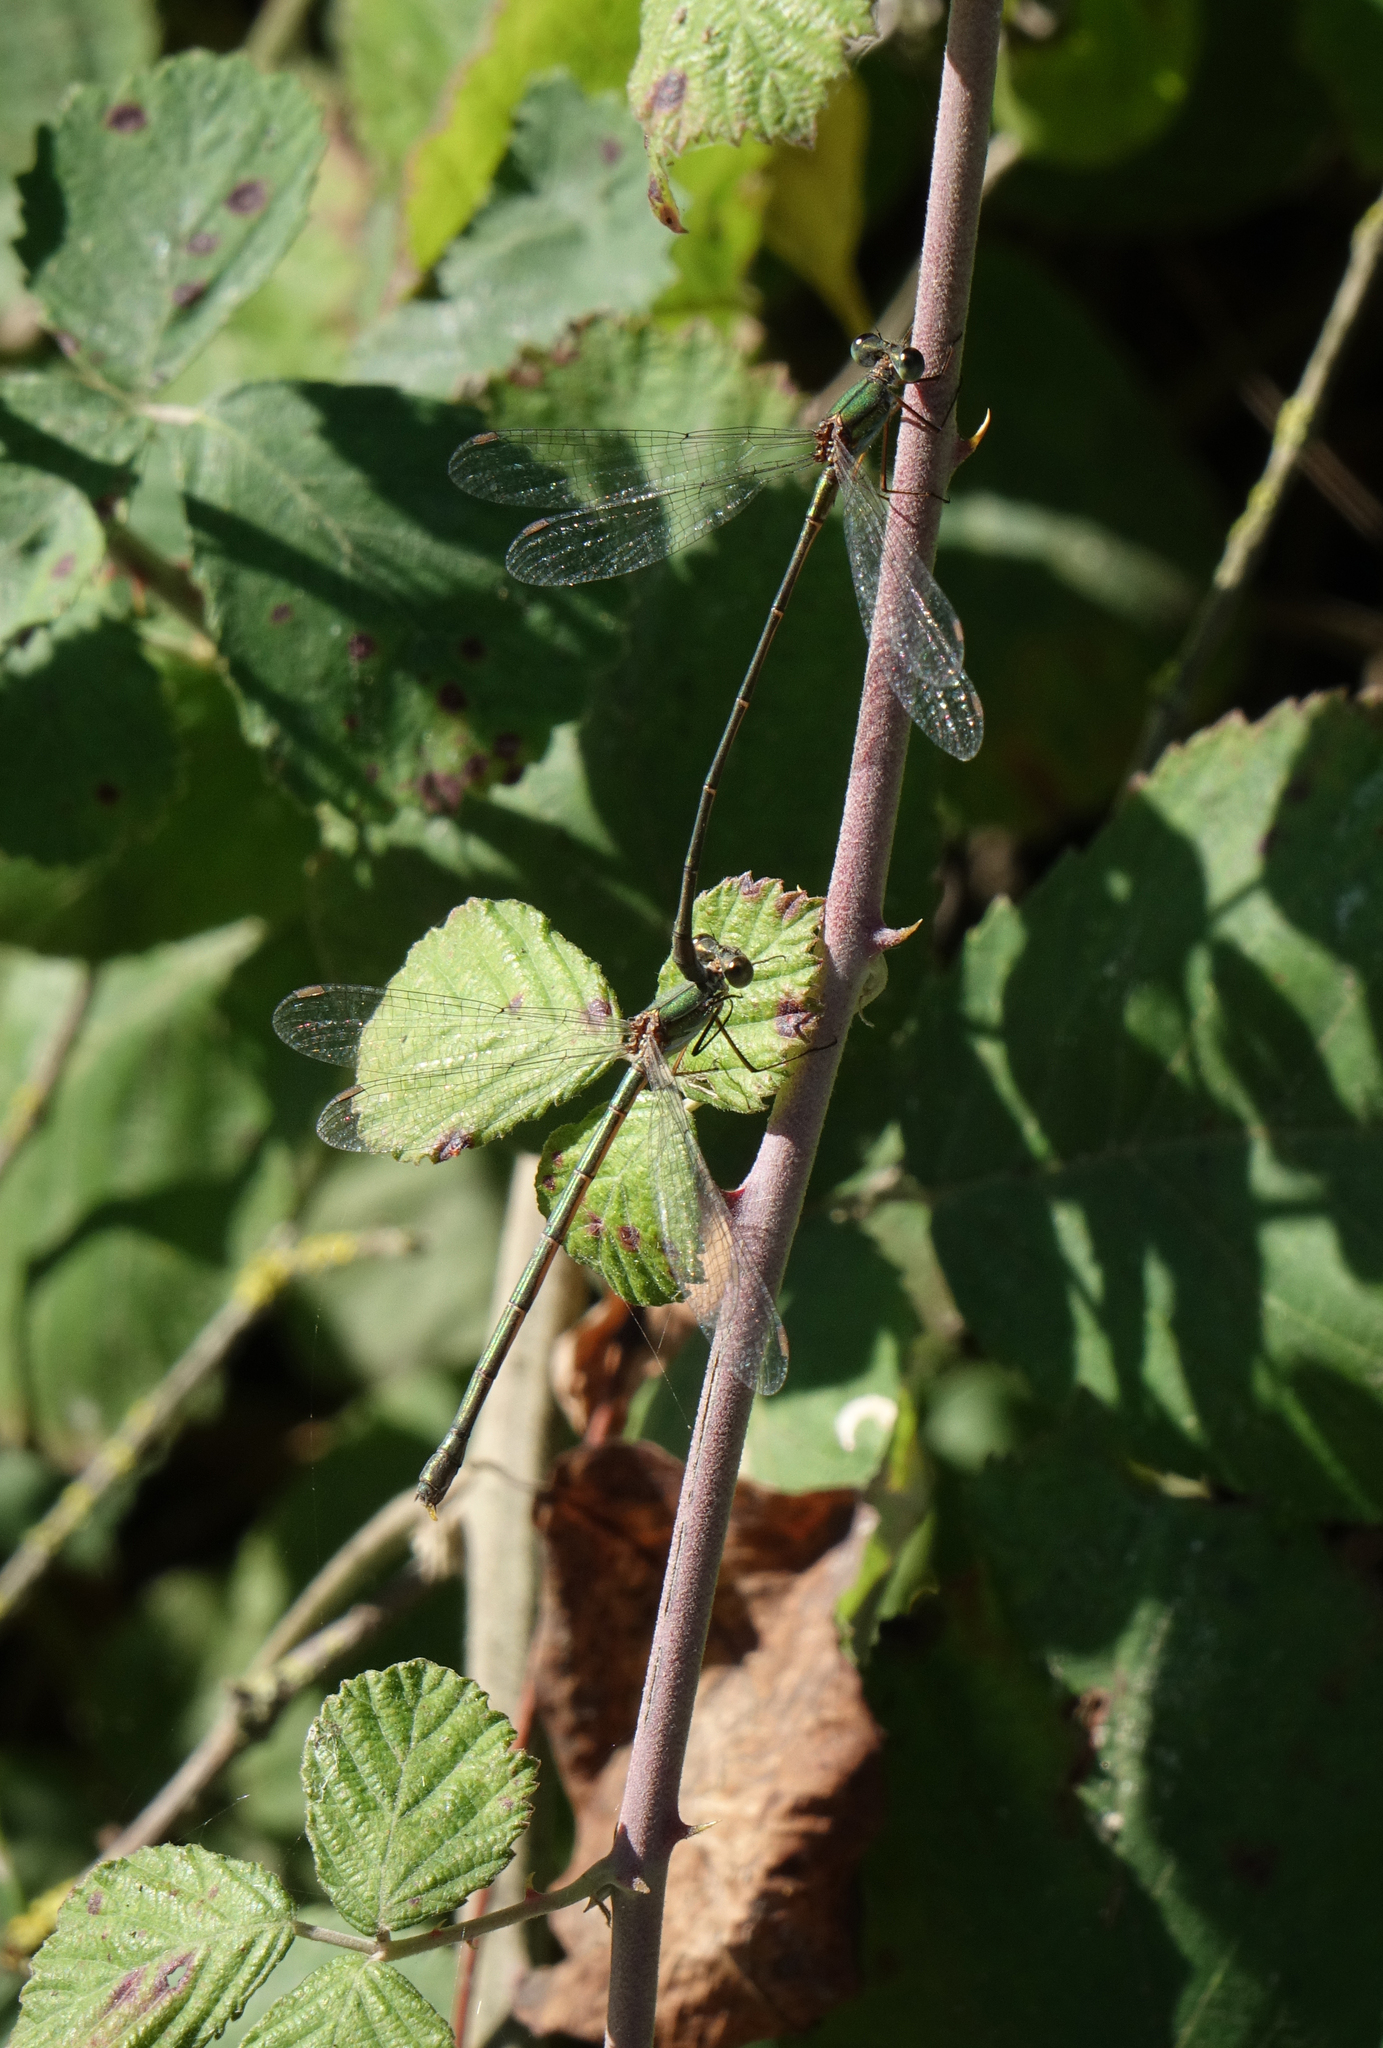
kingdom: Animalia
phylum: Arthropoda
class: Insecta
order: Odonata
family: Lestidae
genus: Chalcolestes
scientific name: Chalcolestes parvidens
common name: Eastern willow spreadwing
